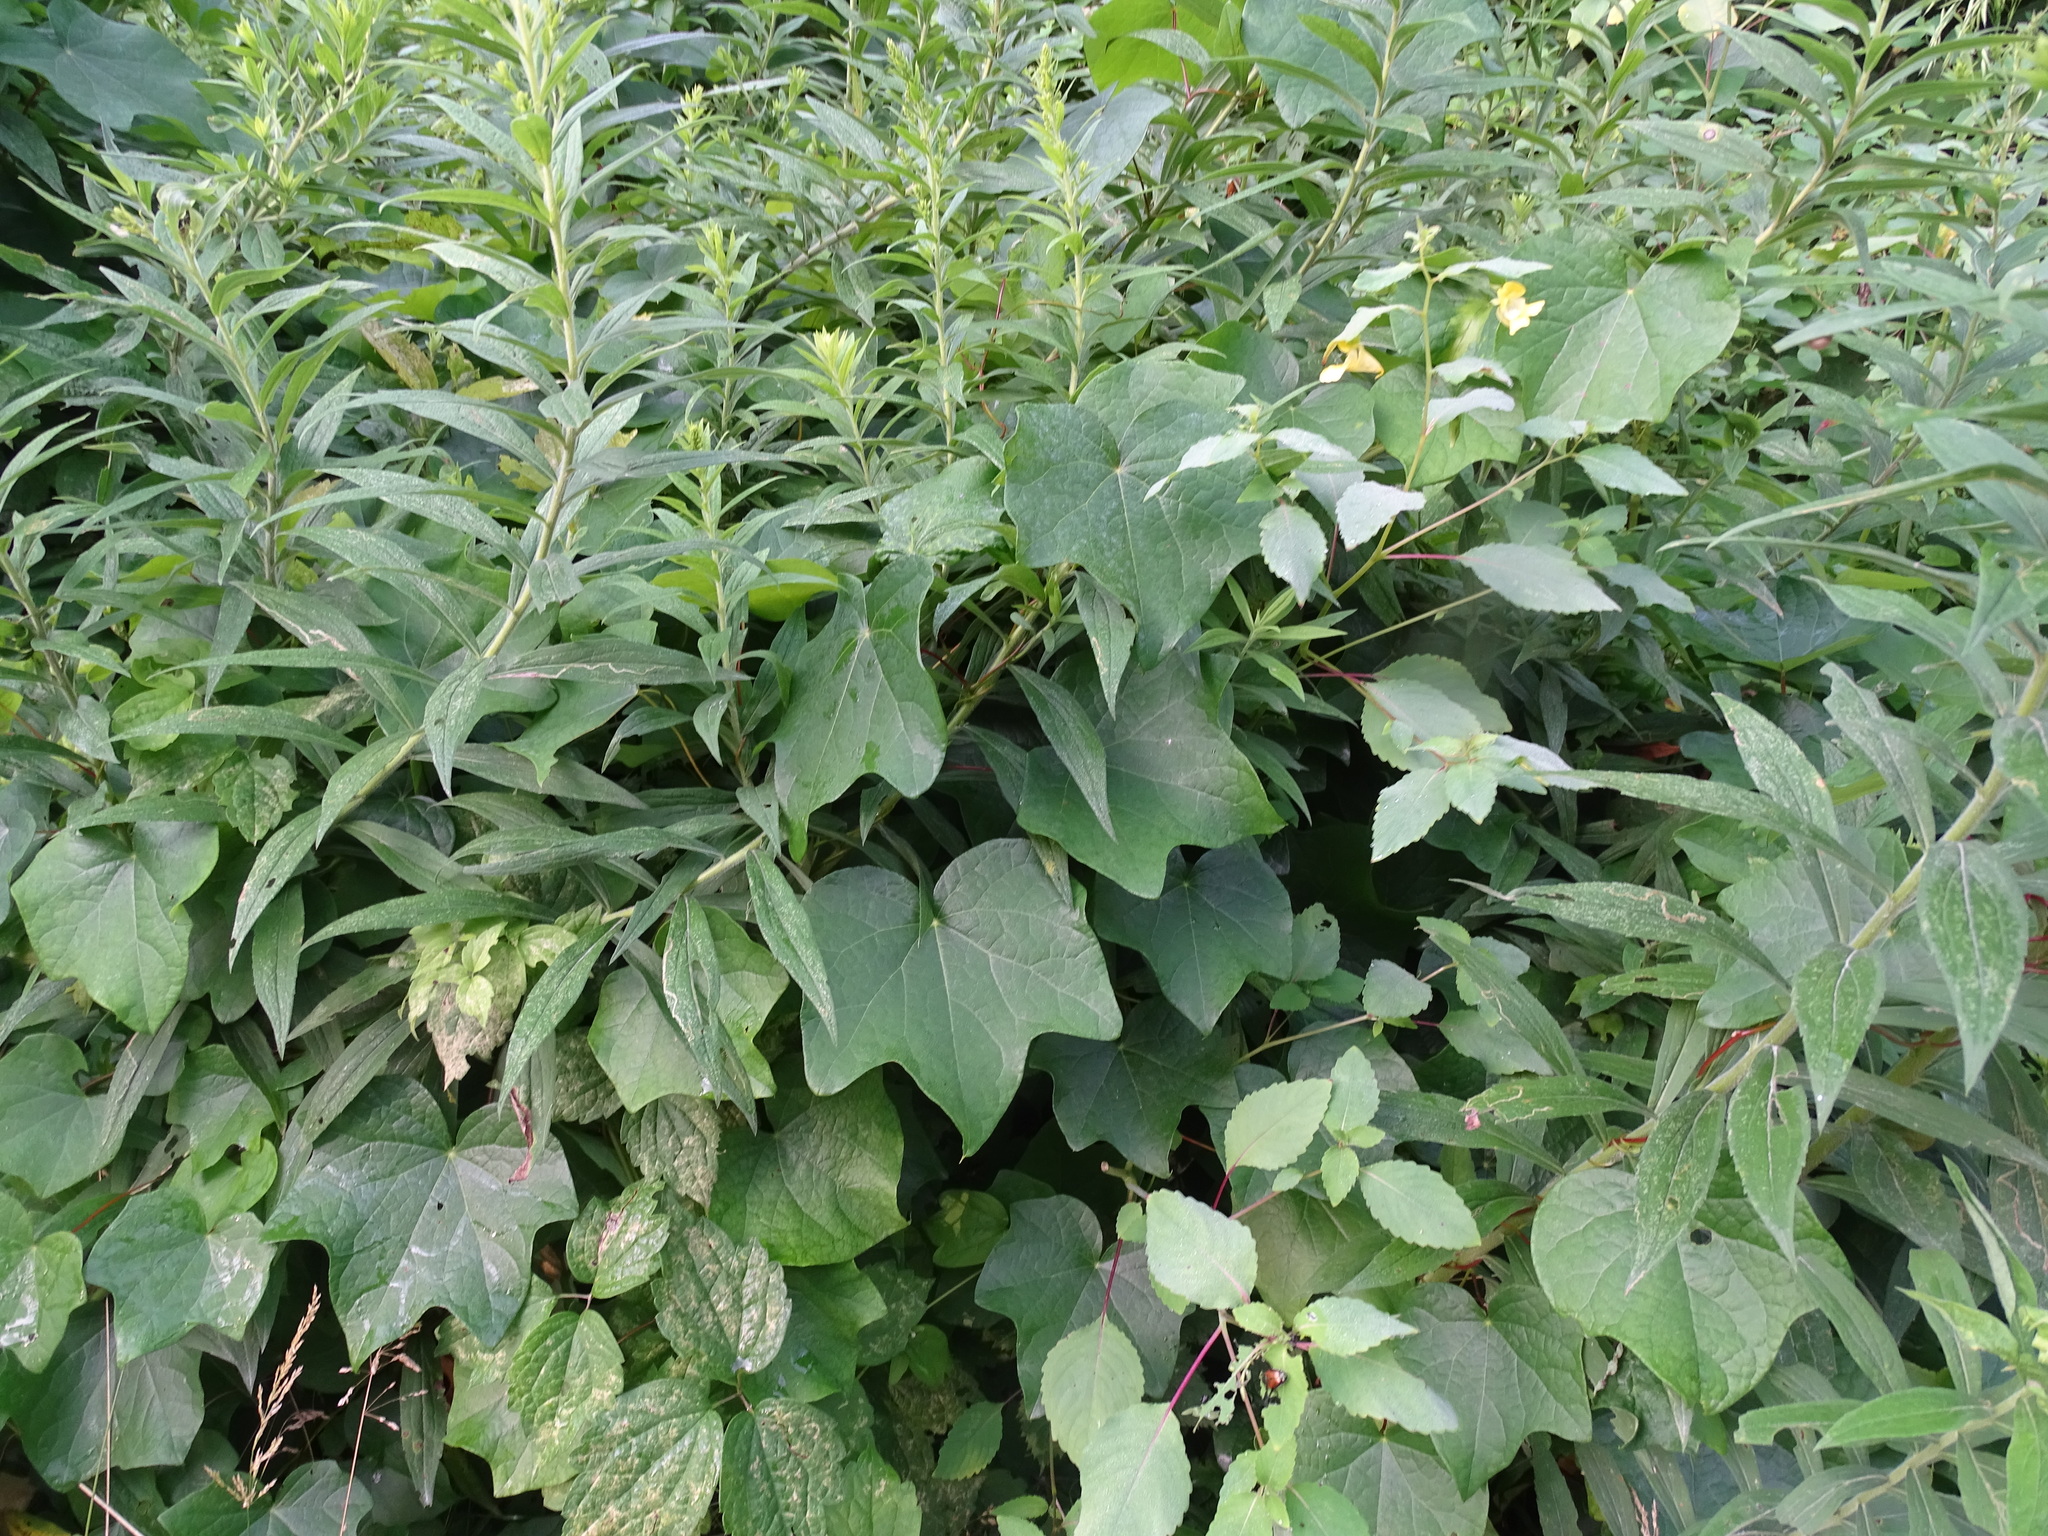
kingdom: Plantae
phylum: Tracheophyta
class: Magnoliopsida
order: Ranunculales
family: Menispermaceae
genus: Menispermum
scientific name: Menispermum canadense
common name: Moonseed
